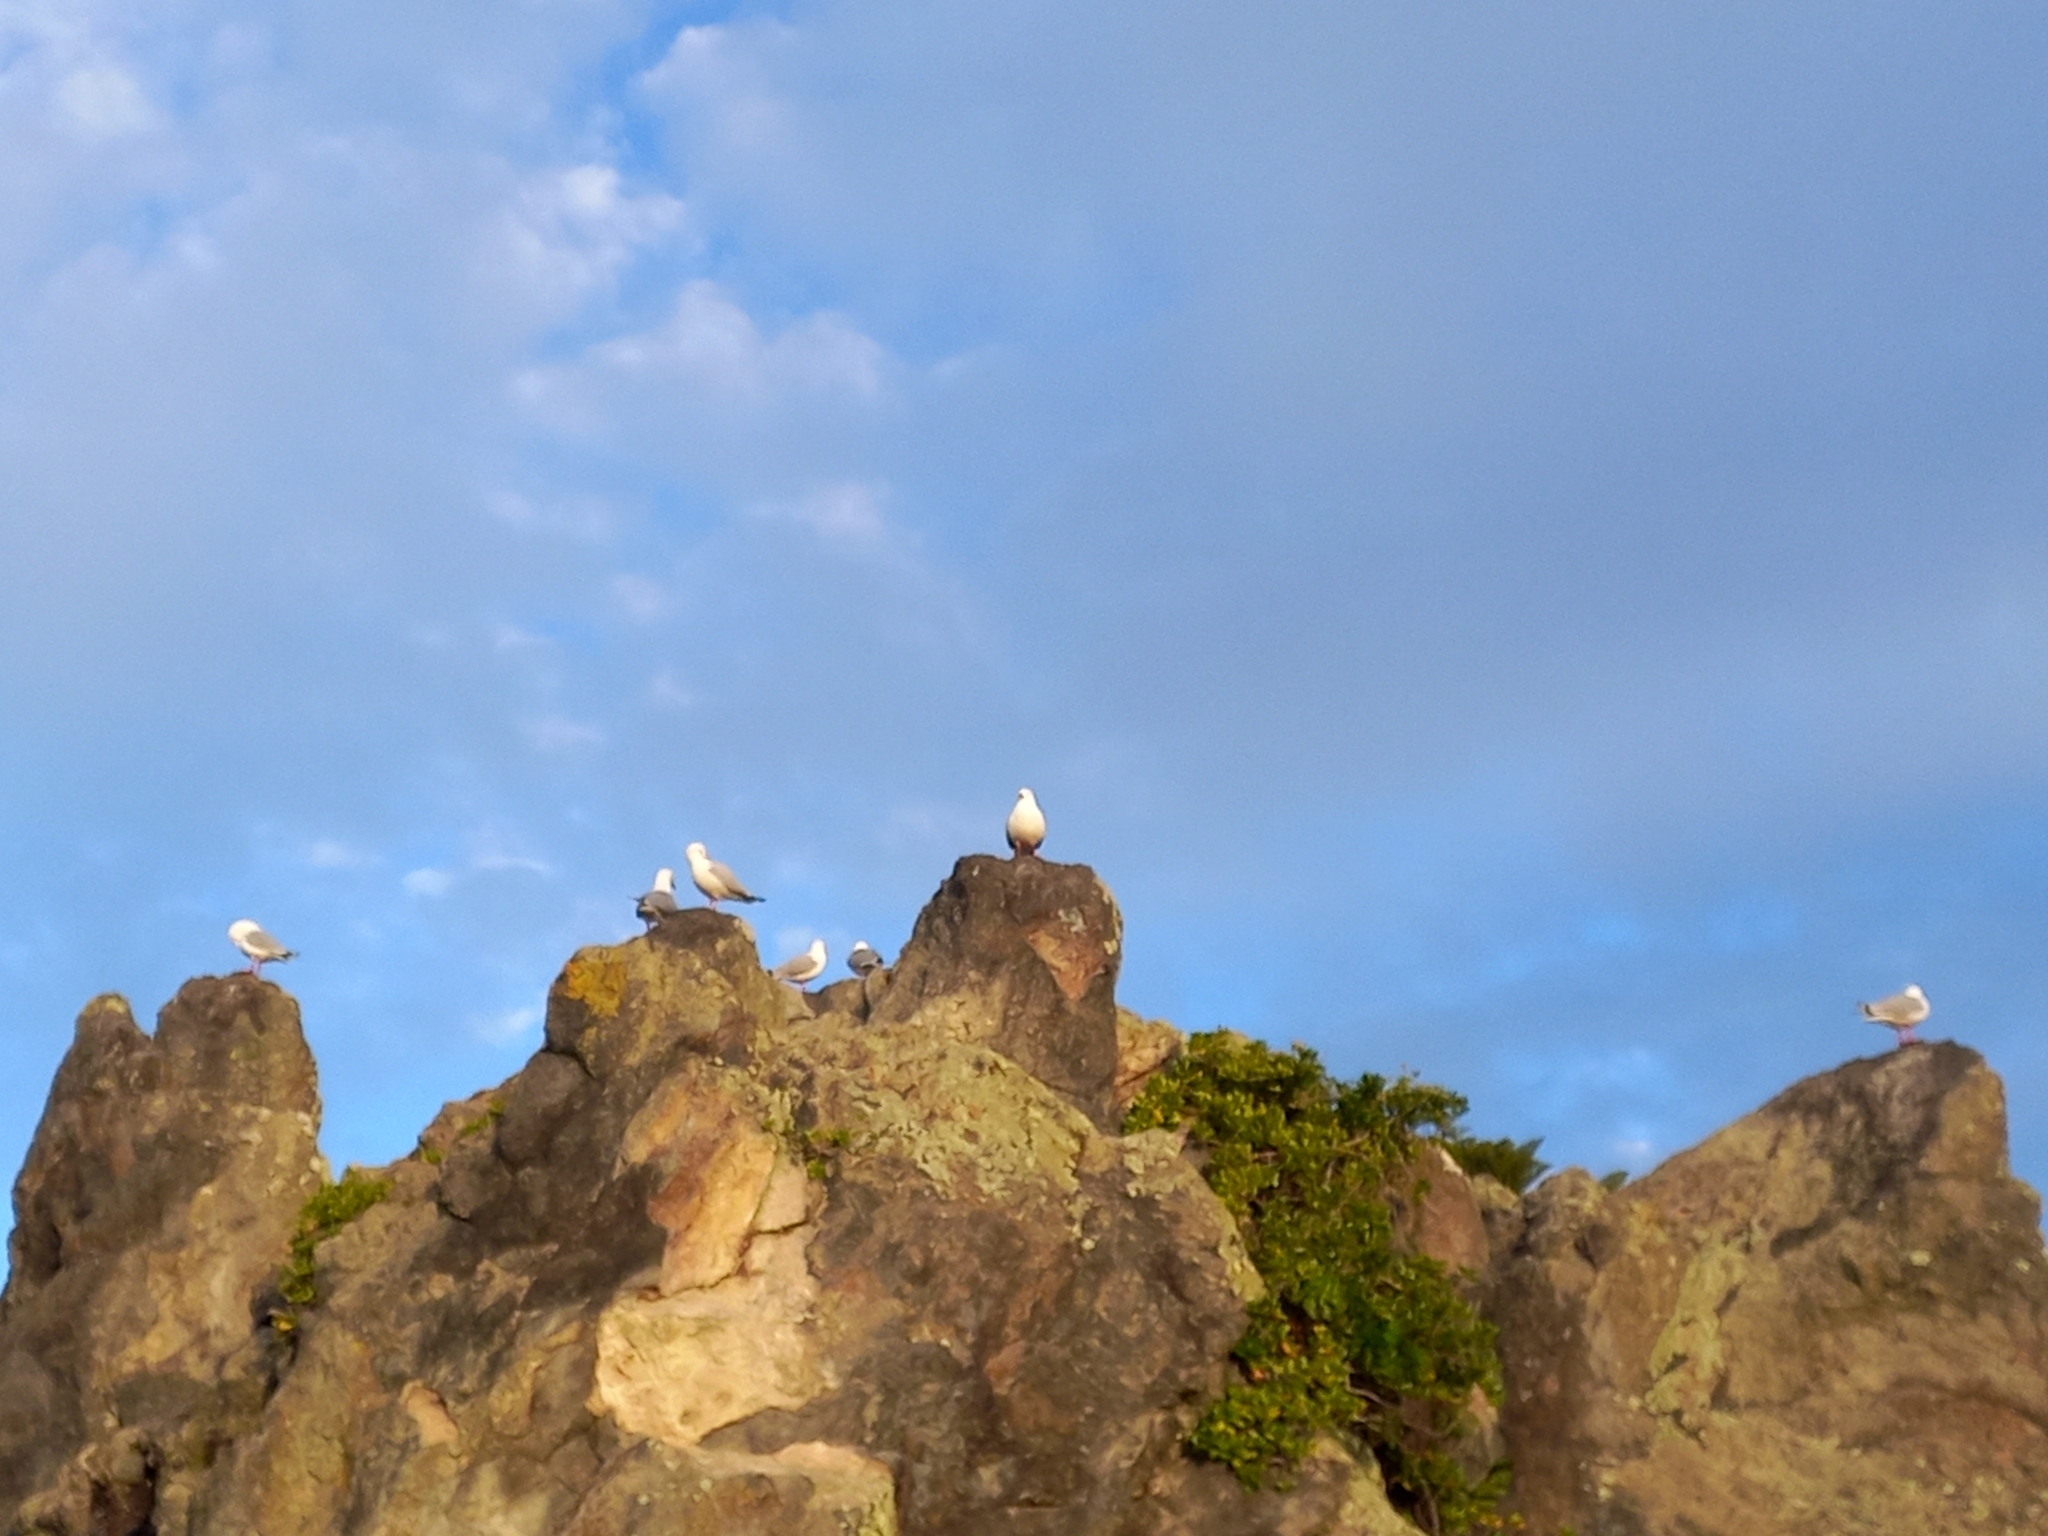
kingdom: Animalia
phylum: Chordata
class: Aves
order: Charadriiformes
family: Laridae
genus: Chroicocephalus
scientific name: Chroicocephalus novaehollandiae
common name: Silver gull
